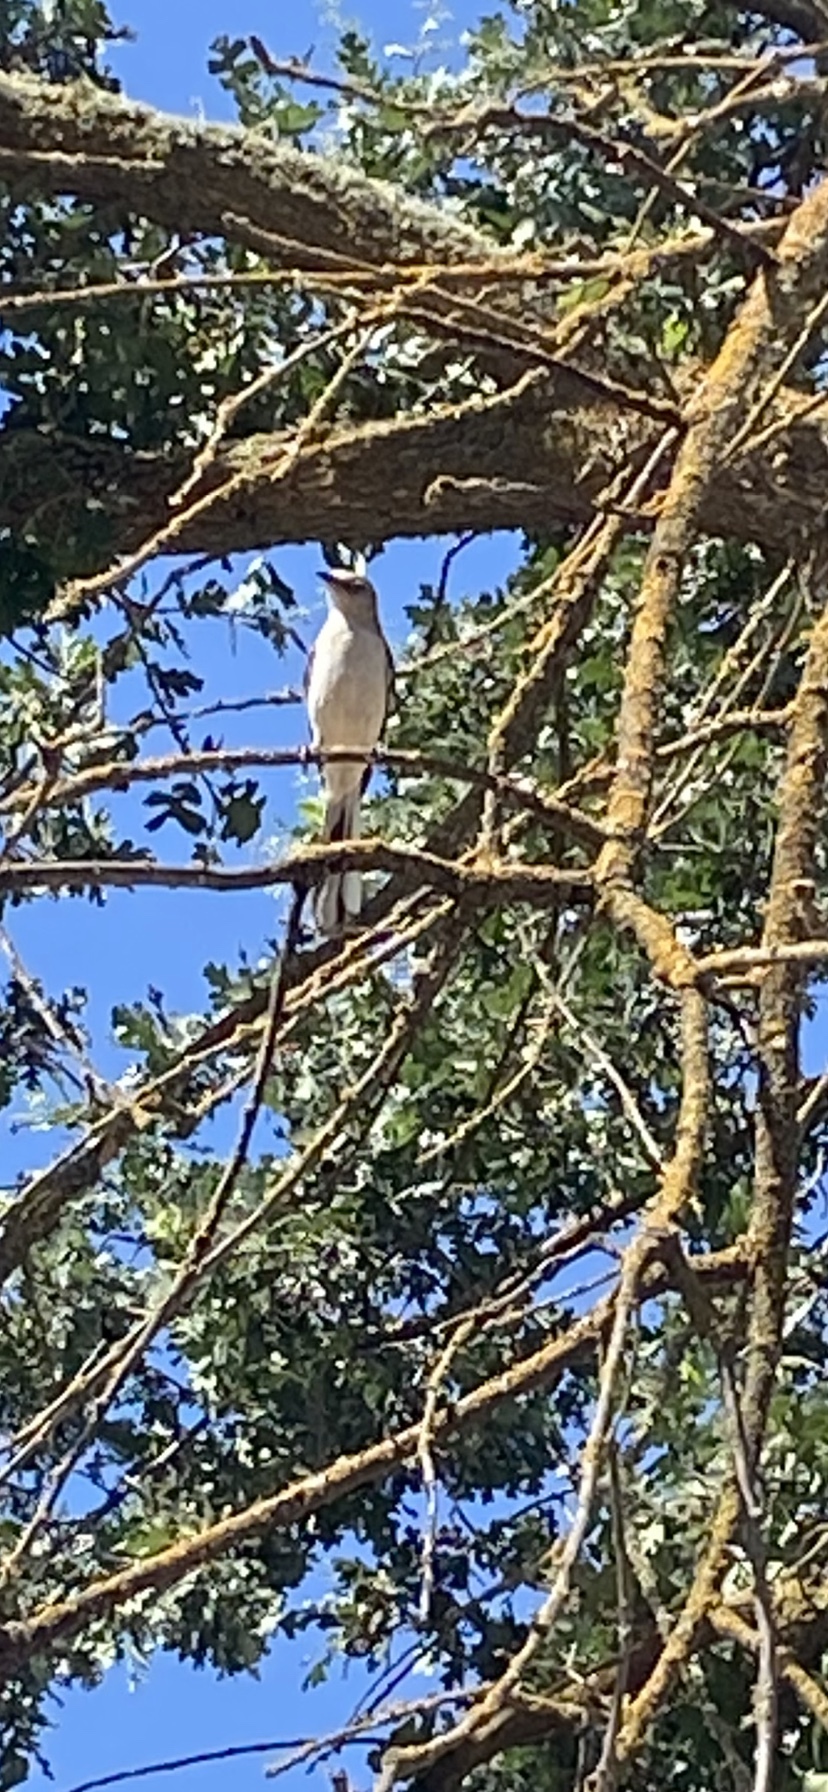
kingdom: Animalia
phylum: Chordata
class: Aves
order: Passeriformes
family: Mimidae
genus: Mimus
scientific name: Mimus polyglottos
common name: Northern mockingbird
